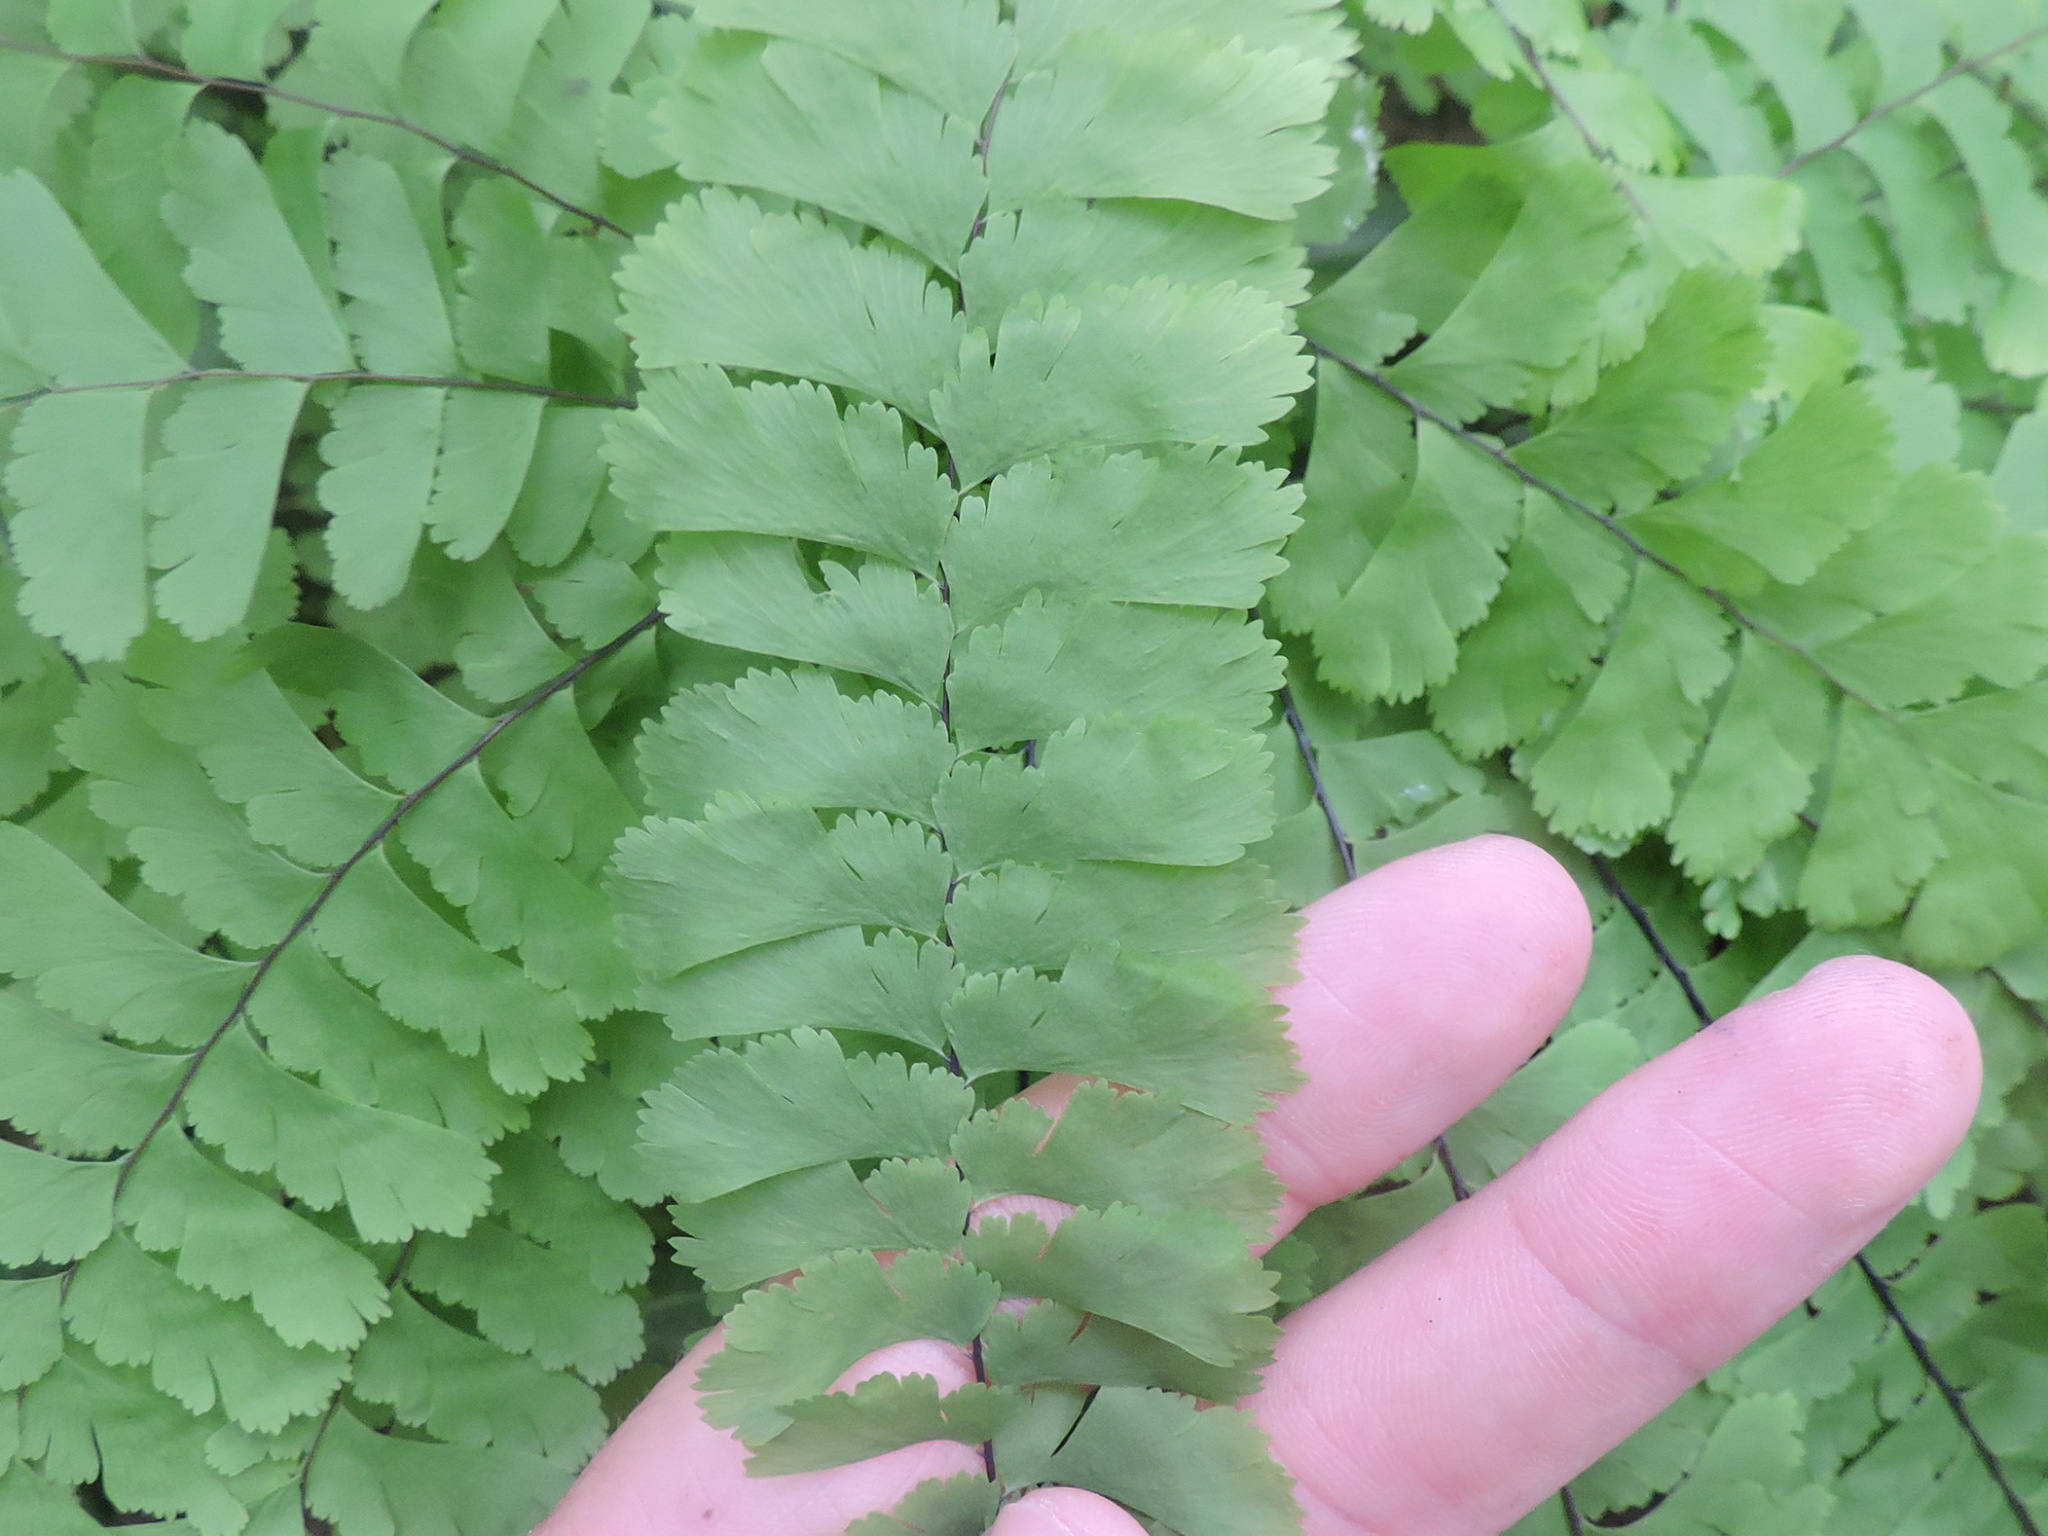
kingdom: Plantae
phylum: Tracheophyta
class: Polypodiopsida
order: Polypodiales
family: Pteridaceae
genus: Adiantum
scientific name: Adiantum aleuticum
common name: Aleutian maidenhair fern
